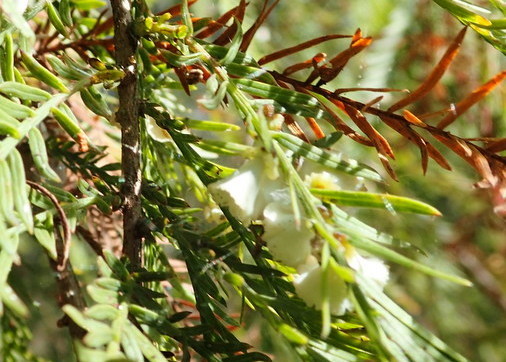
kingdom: Animalia
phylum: Arthropoda
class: Insecta
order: Diptera
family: Cecidomyiidae
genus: Taxodiomyia
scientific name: Taxodiomyia cupressi
